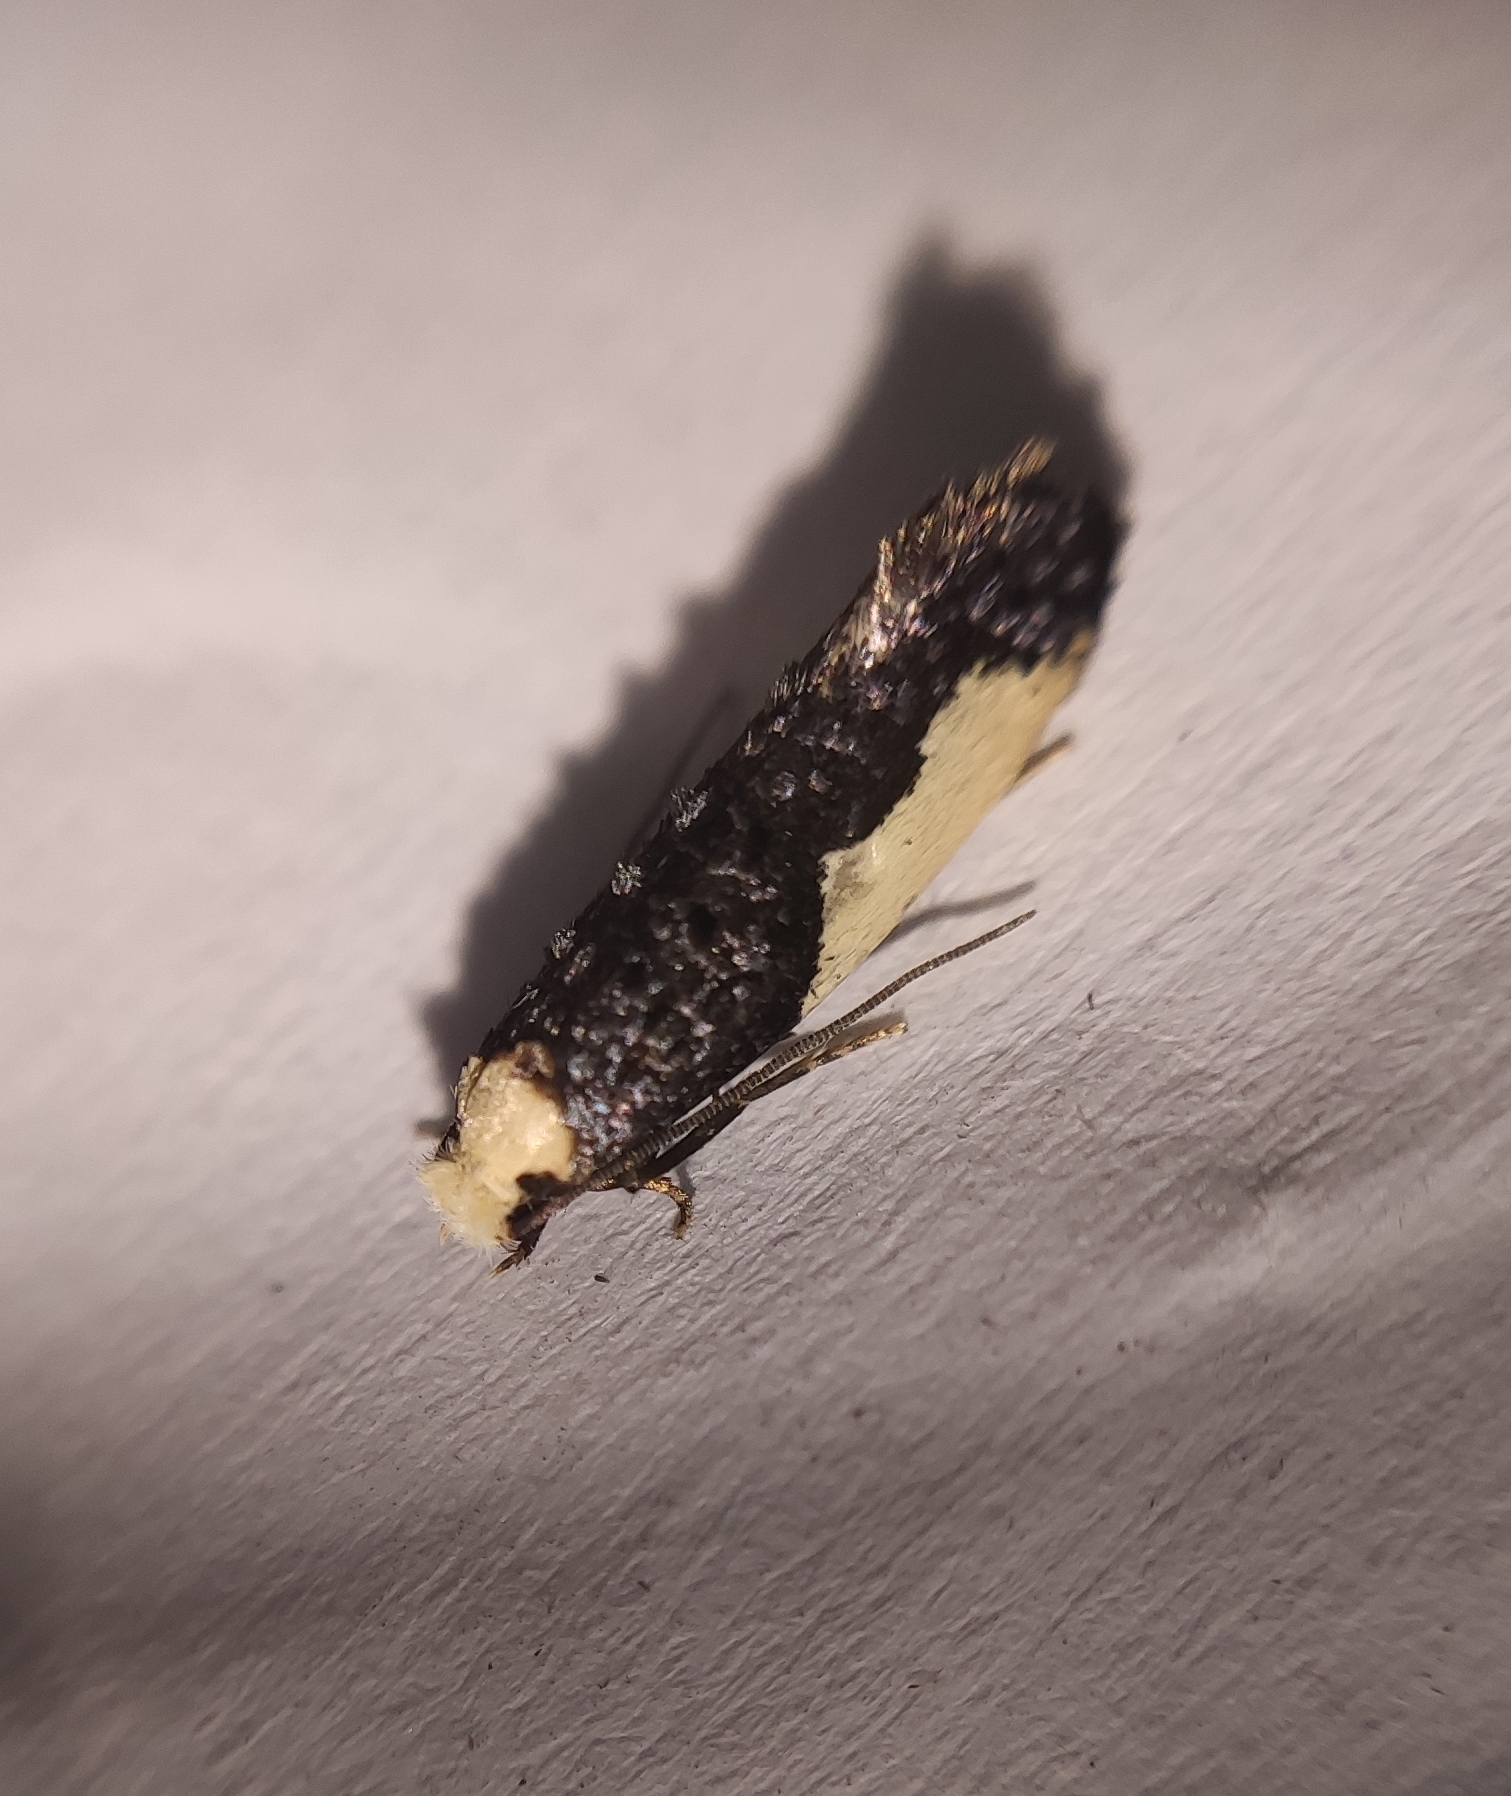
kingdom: Animalia
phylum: Arthropoda
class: Insecta
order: Lepidoptera
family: Tineidae
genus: Monopis
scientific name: Monopis monachella
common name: Moth
